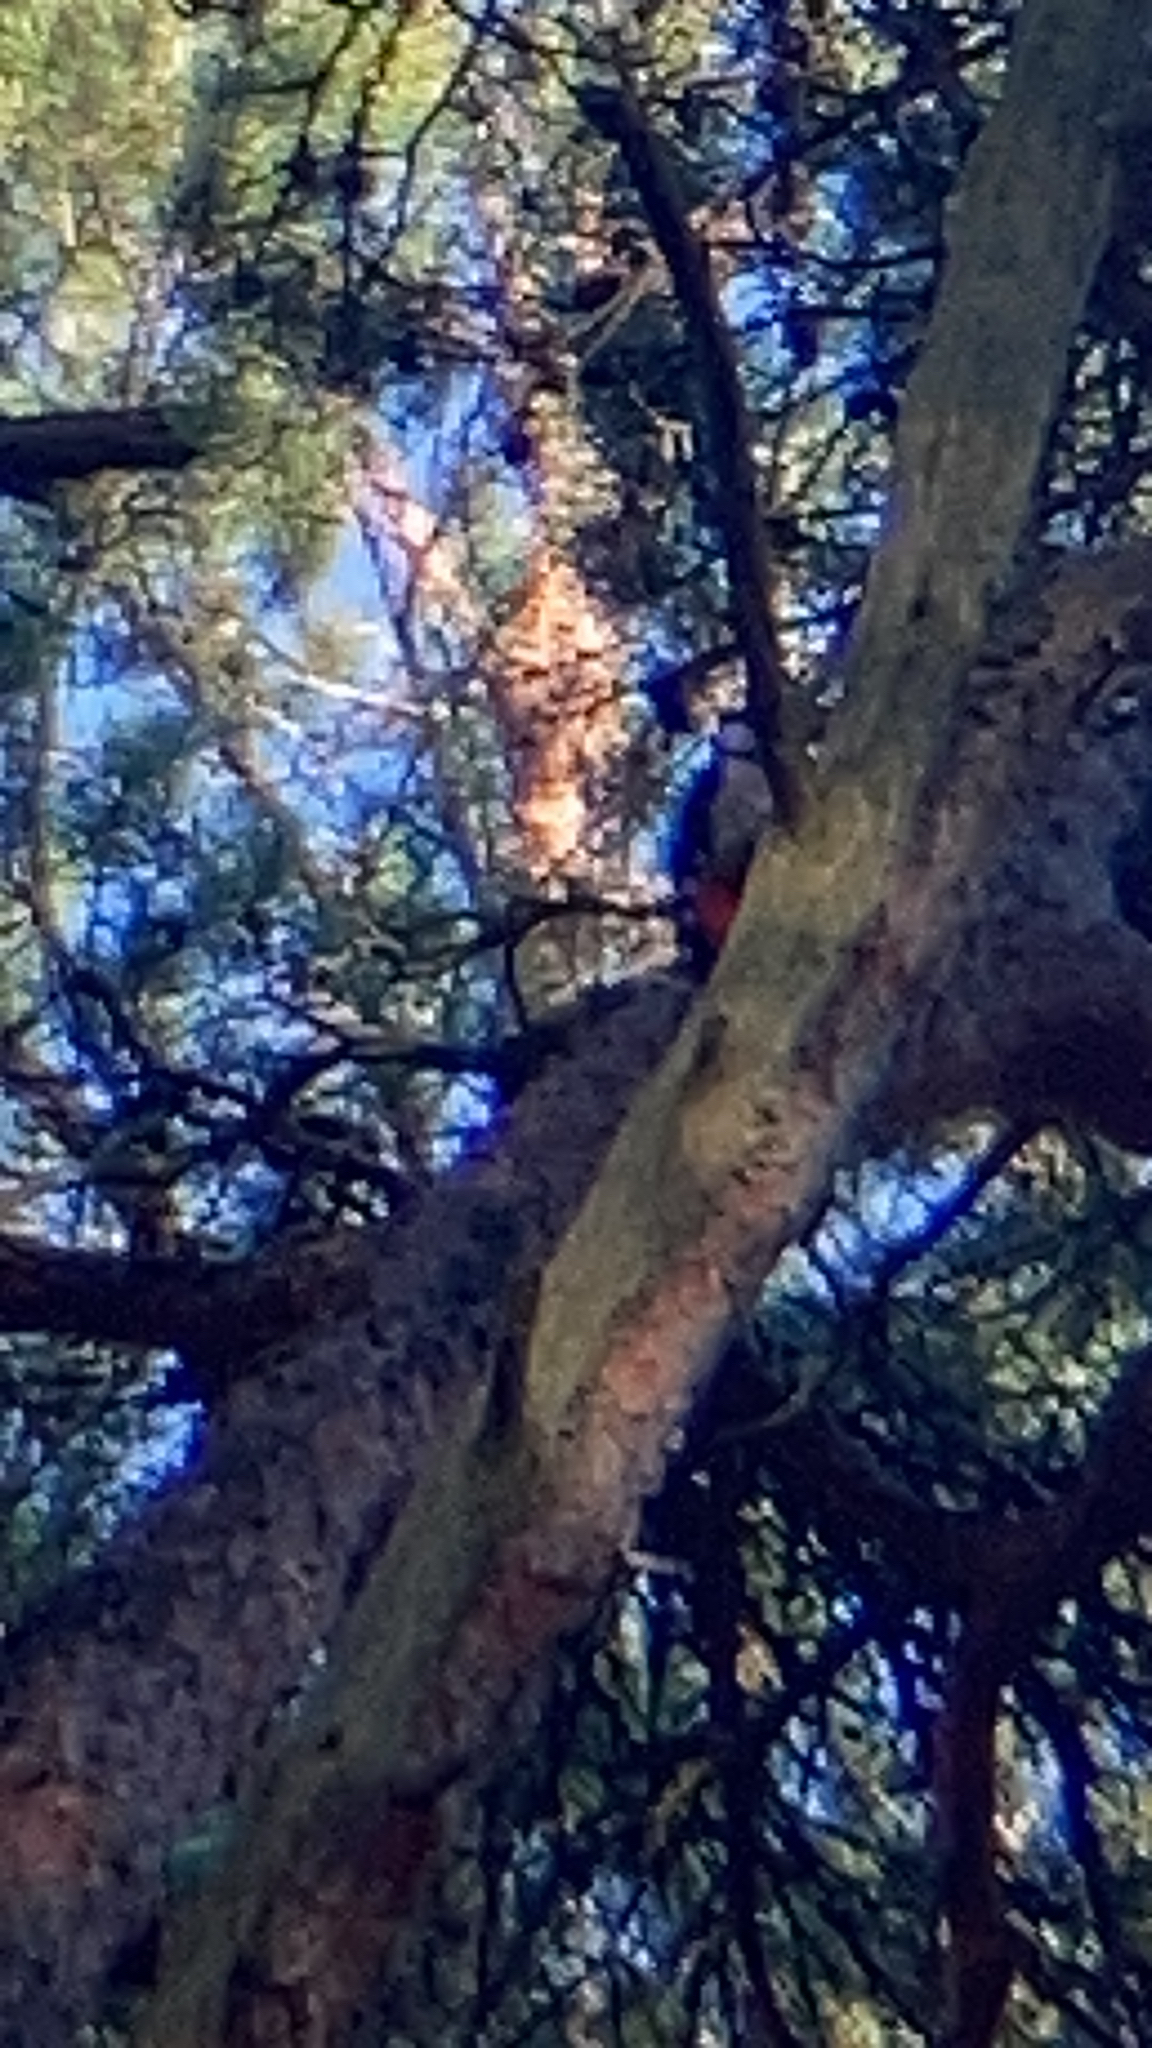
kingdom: Animalia
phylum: Chordata
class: Aves
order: Piciformes
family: Picidae
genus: Dendrocopos
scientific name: Dendrocopos major
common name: Great spotted woodpecker
